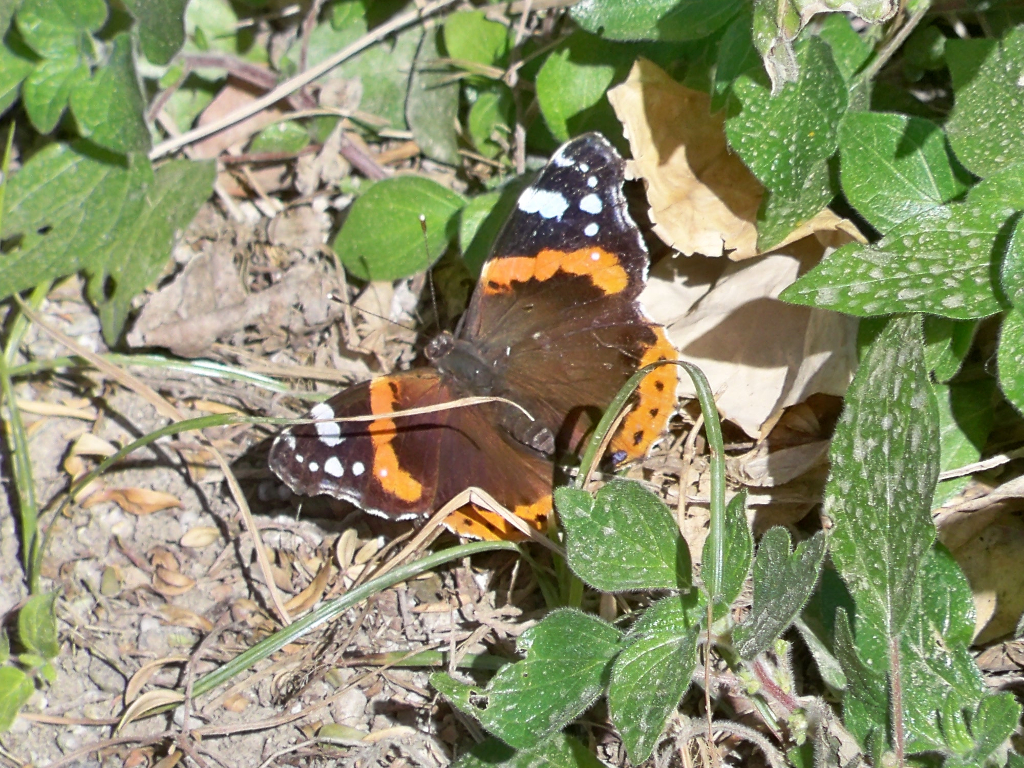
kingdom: Animalia
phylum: Arthropoda
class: Insecta
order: Lepidoptera
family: Nymphalidae
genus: Vanessa
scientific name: Vanessa atalanta
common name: Red admiral
